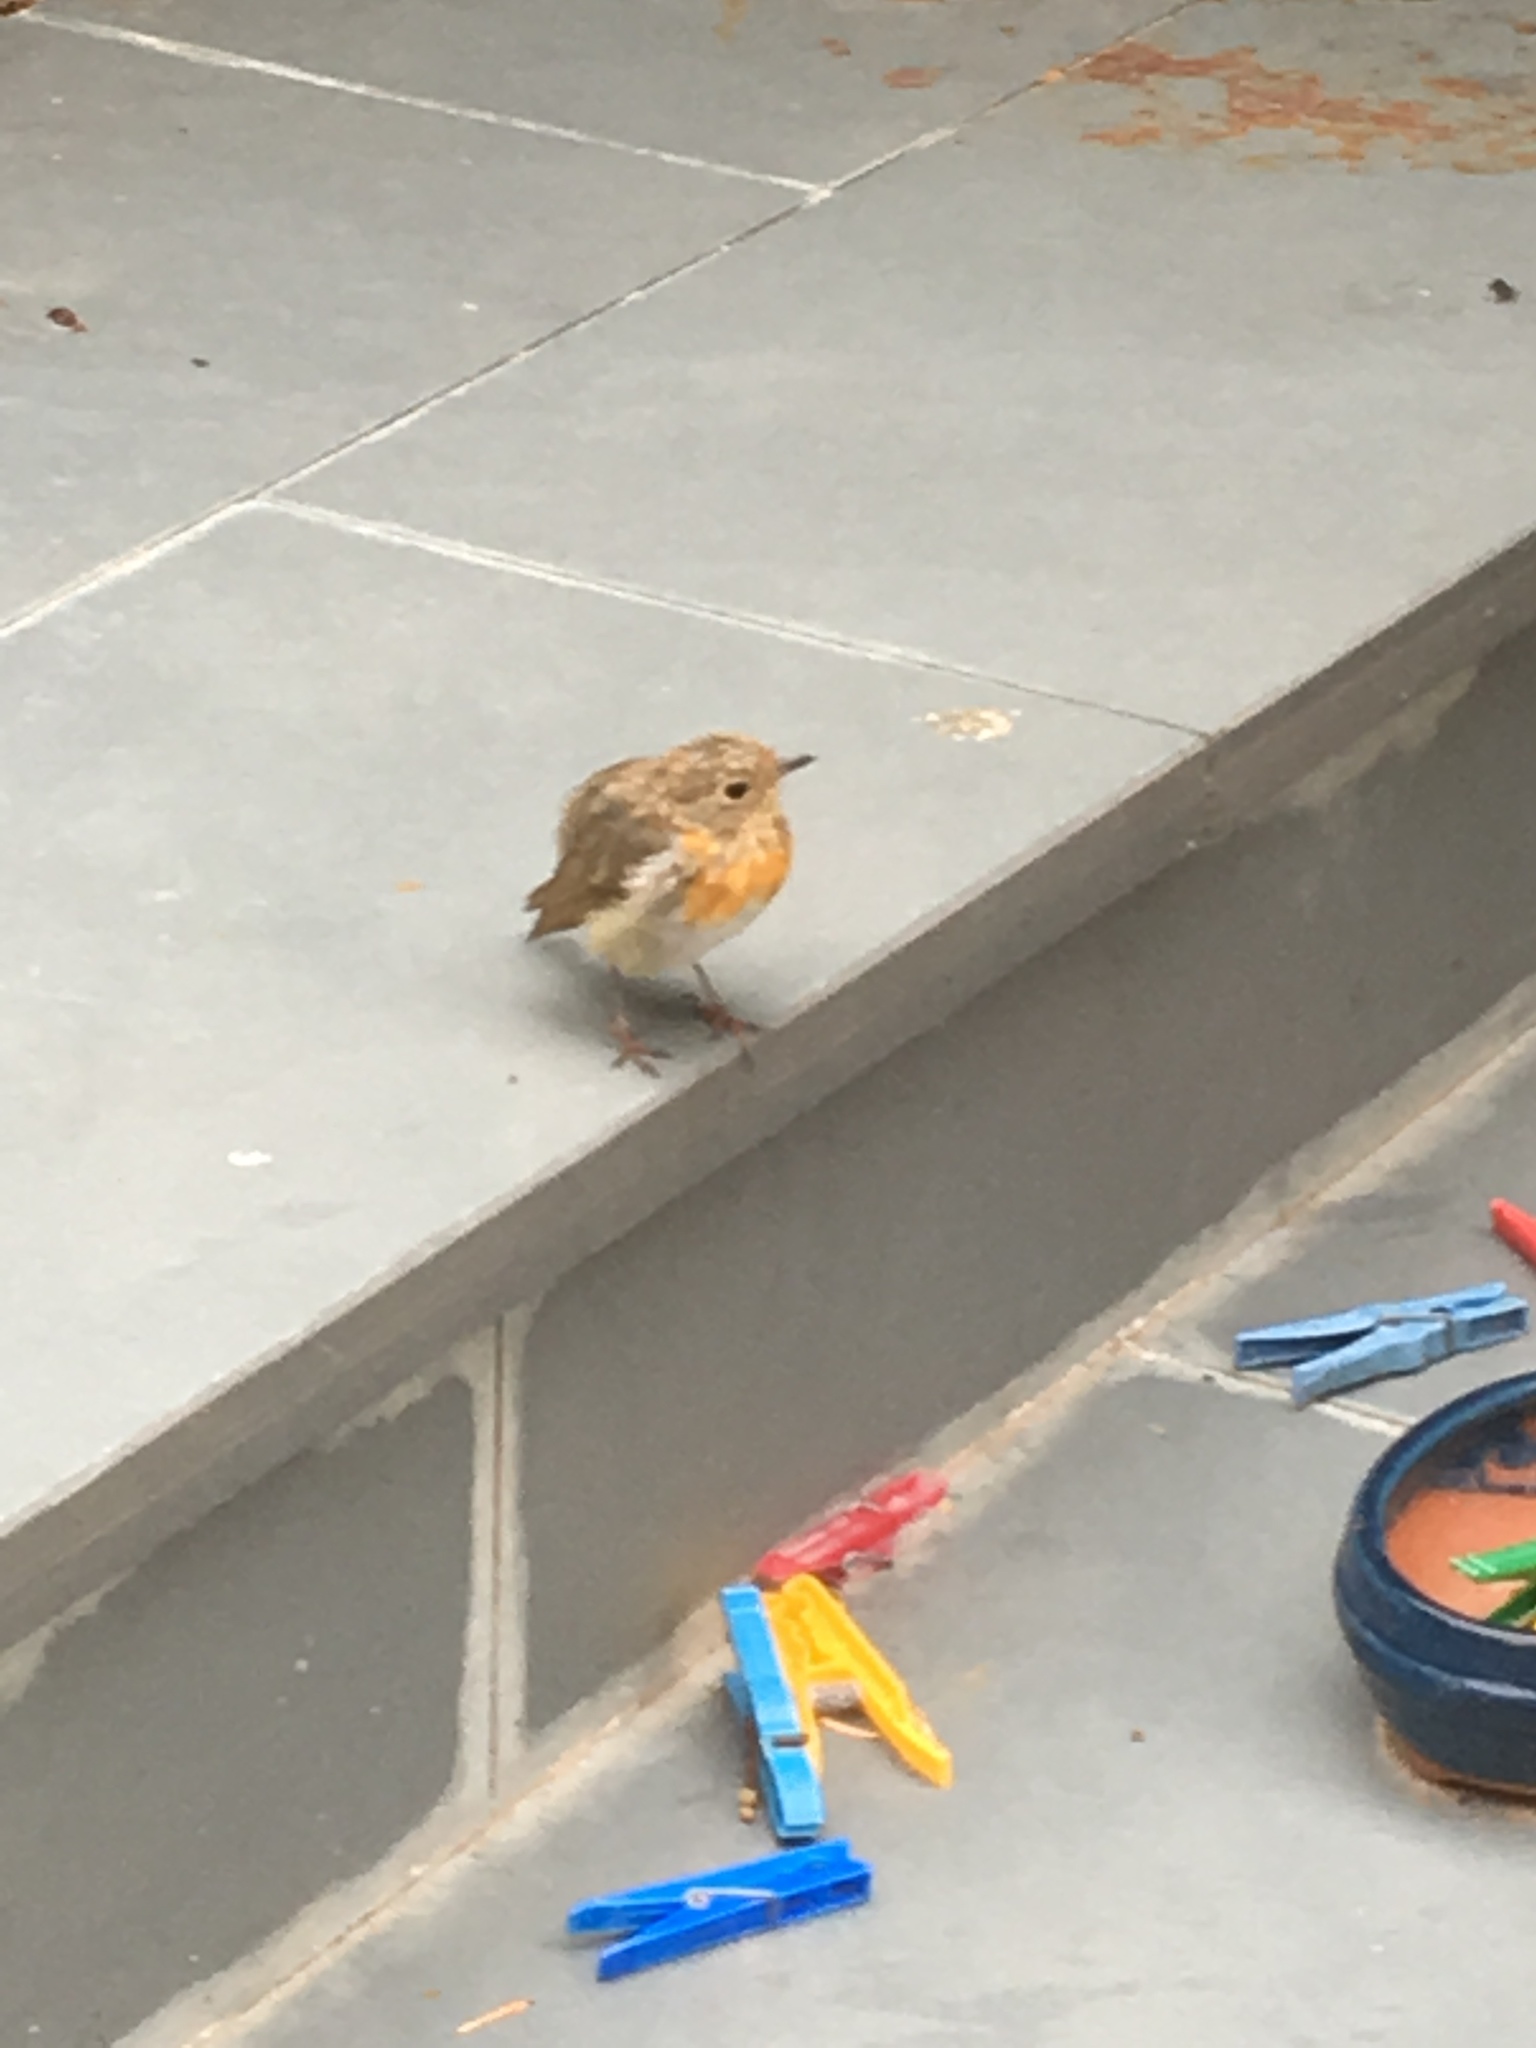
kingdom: Animalia
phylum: Chordata
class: Aves
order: Passeriformes
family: Muscicapidae
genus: Erithacus
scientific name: Erithacus rubecula
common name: European robin
